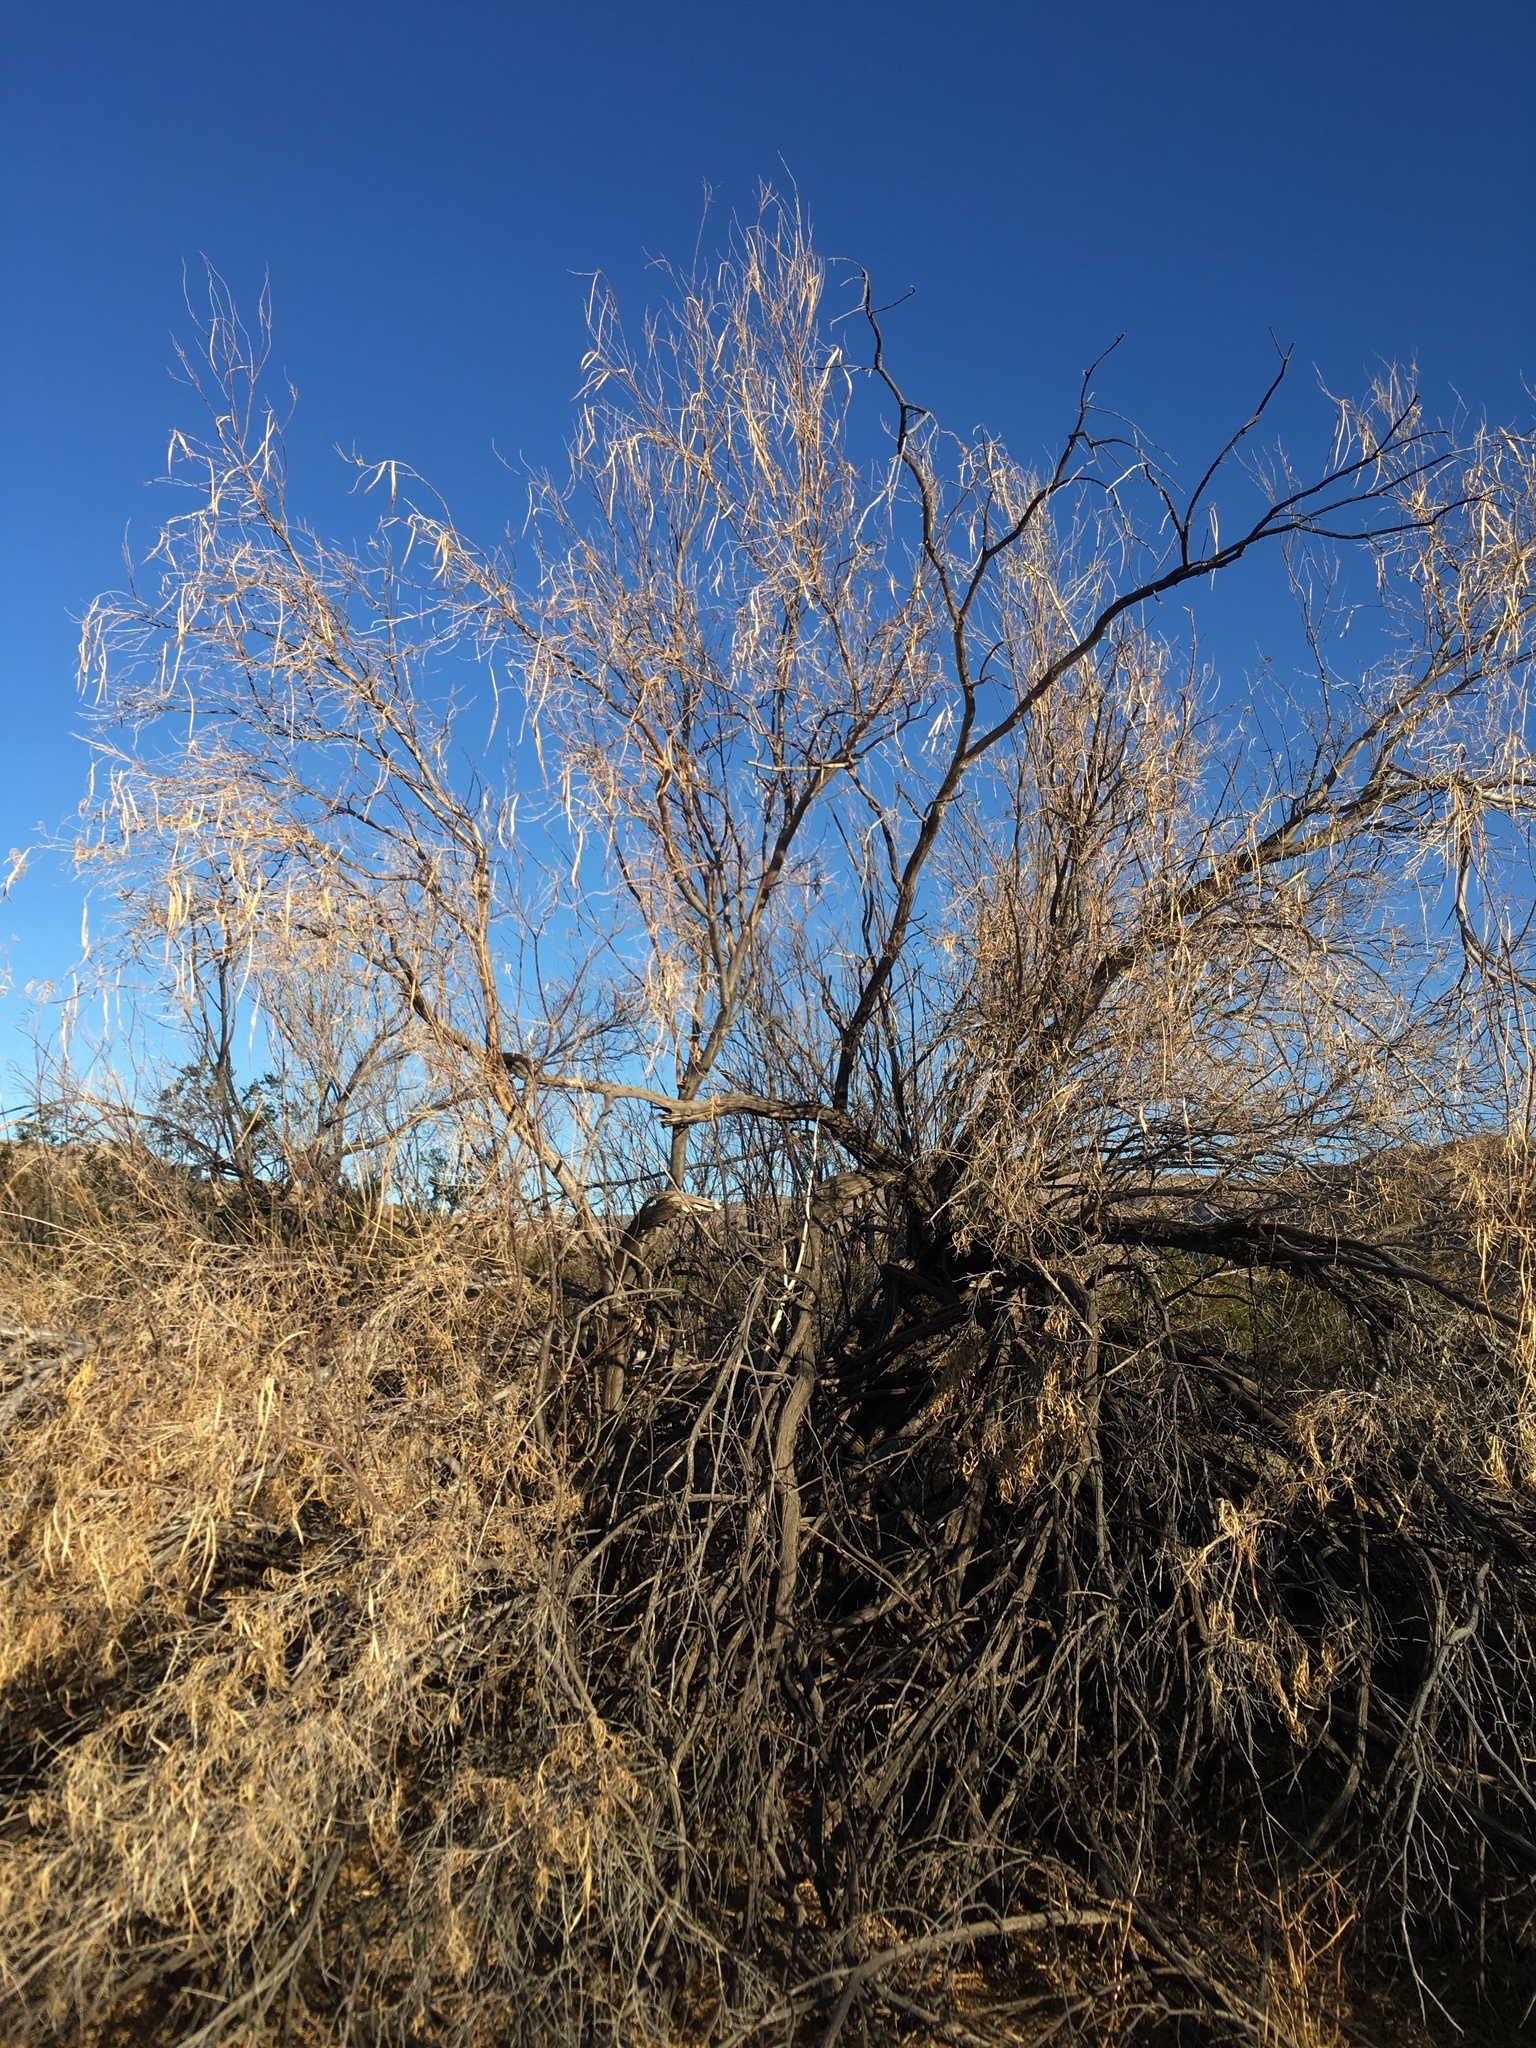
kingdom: Plantae
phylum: Tracheophyta
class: Magnoliopsida
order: Lamiales
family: Bignoniaceae
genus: Chilopsis
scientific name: Chilopsis linearis
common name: Desert-willow
